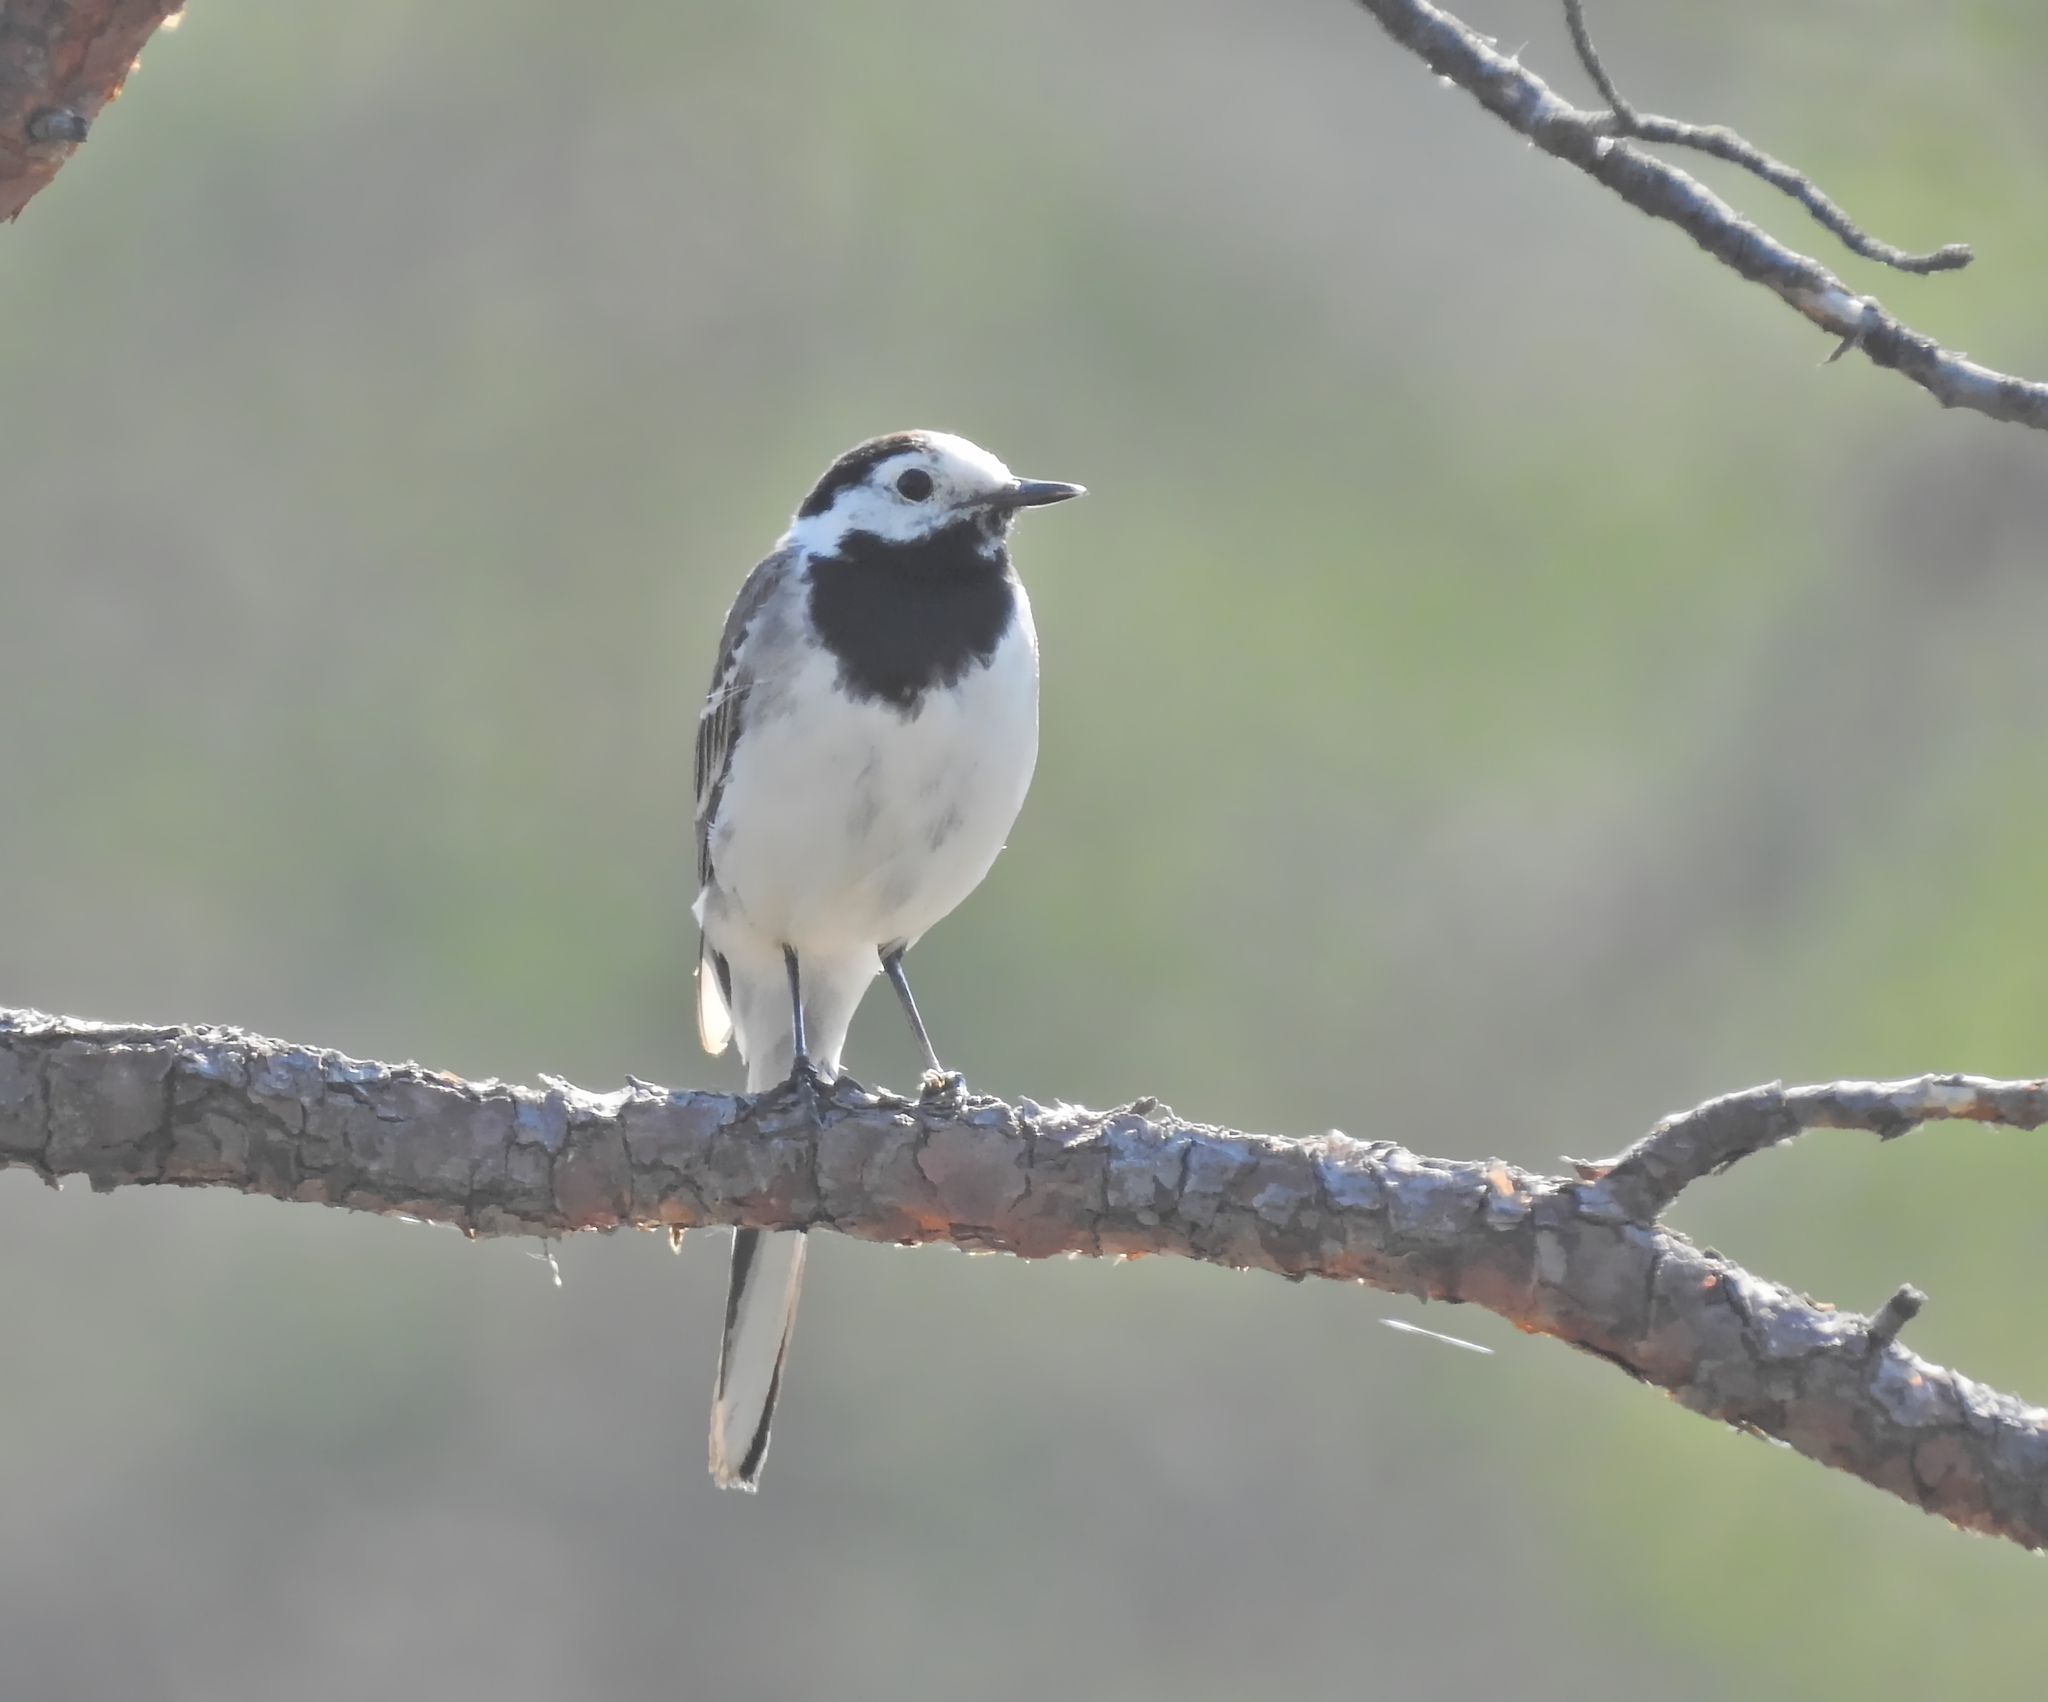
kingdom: Animalia
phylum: Chordata
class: Aves
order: Passeriformes
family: Motacillidae
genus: Motacilla
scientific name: Motacilla alba
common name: White wagtail
